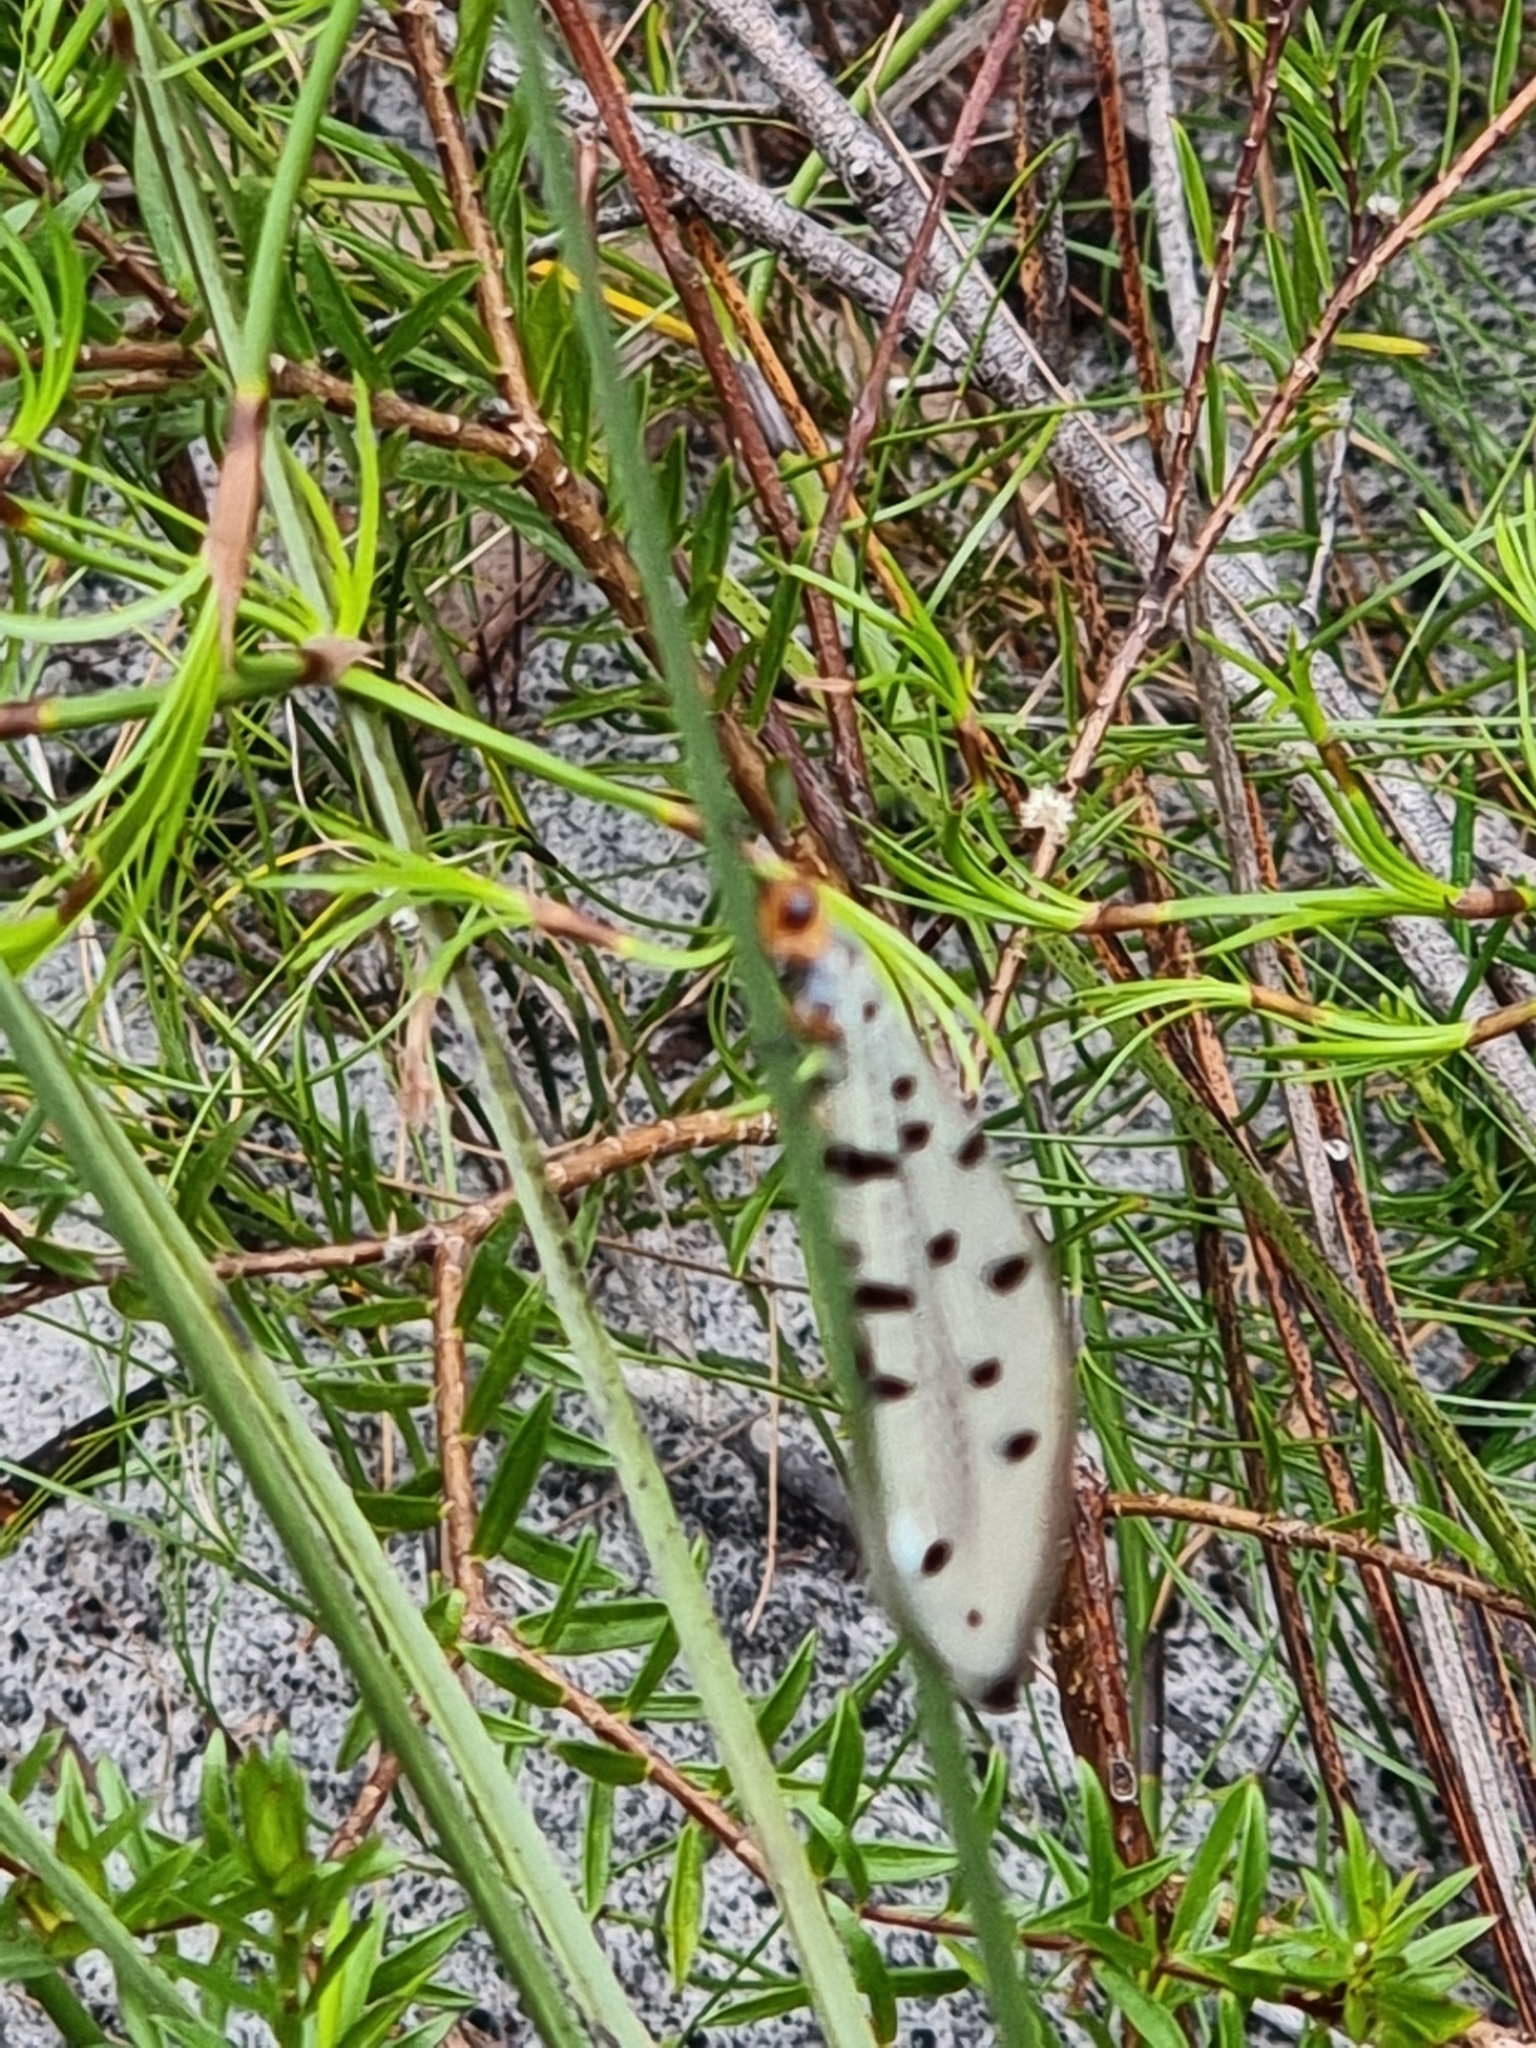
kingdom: Animalia
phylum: Arthropoda
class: Insecta
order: Neuroptera
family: Myrmeleontidae
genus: Myrmeleon
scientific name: Myrmeleon erythrocephalus
